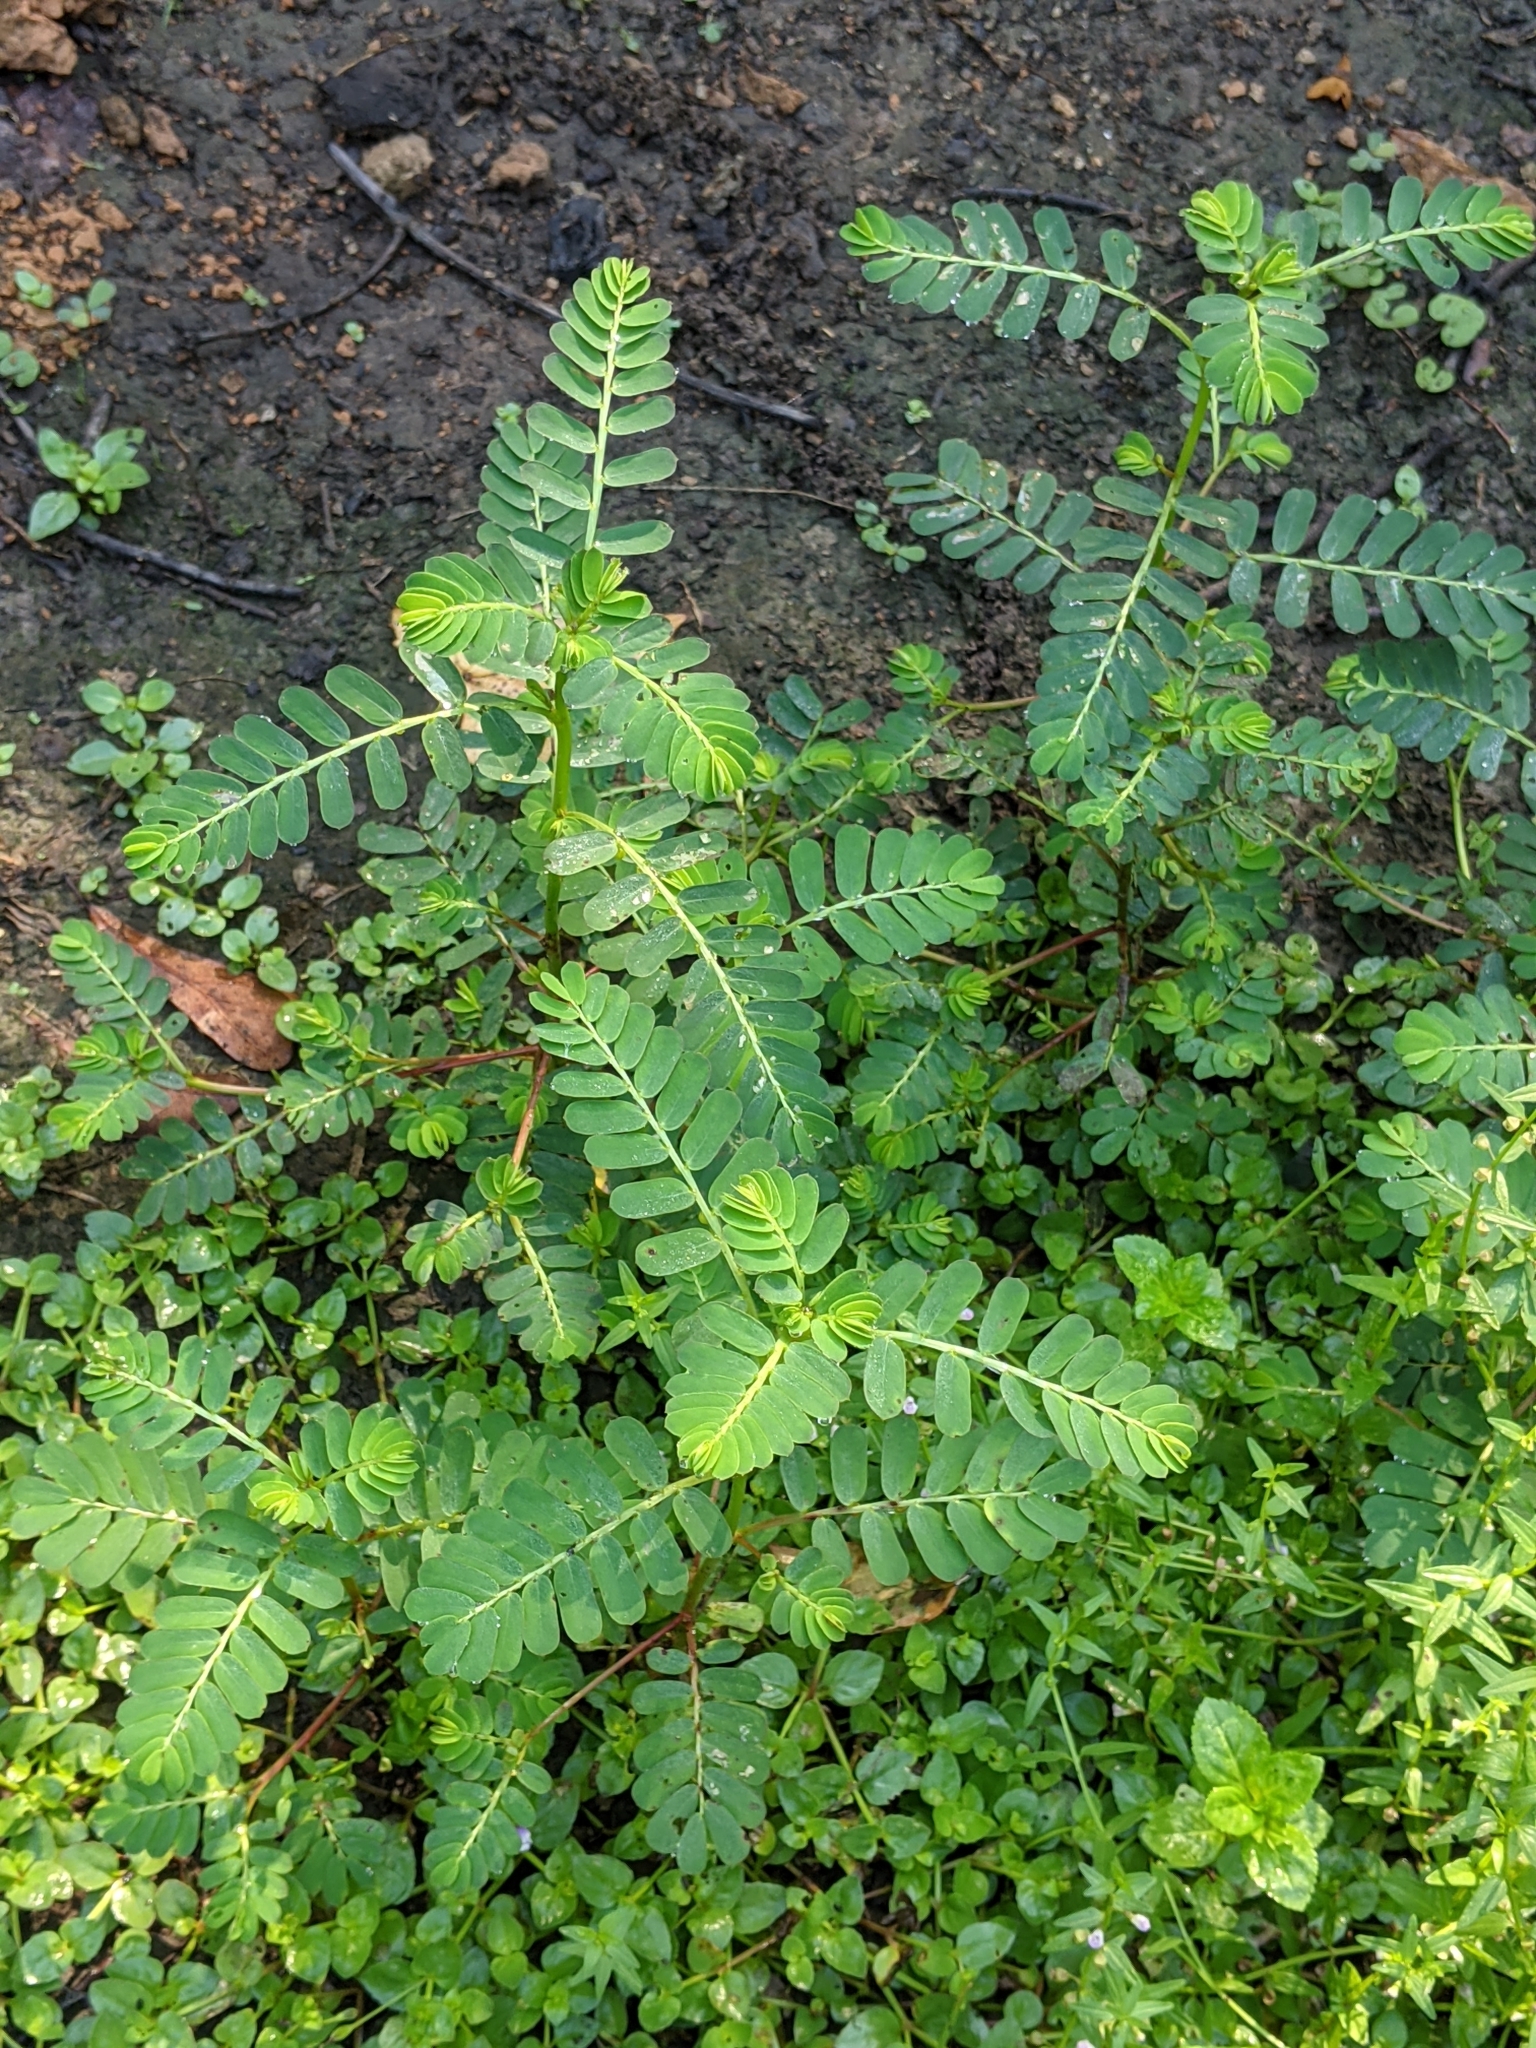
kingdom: Plantae
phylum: Tracheophyta
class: Magnoliopsida
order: Malpighiales
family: Phyllanthaceae
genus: Phyllanthus
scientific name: Phyllanthus urinaria
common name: Chamber bitter
